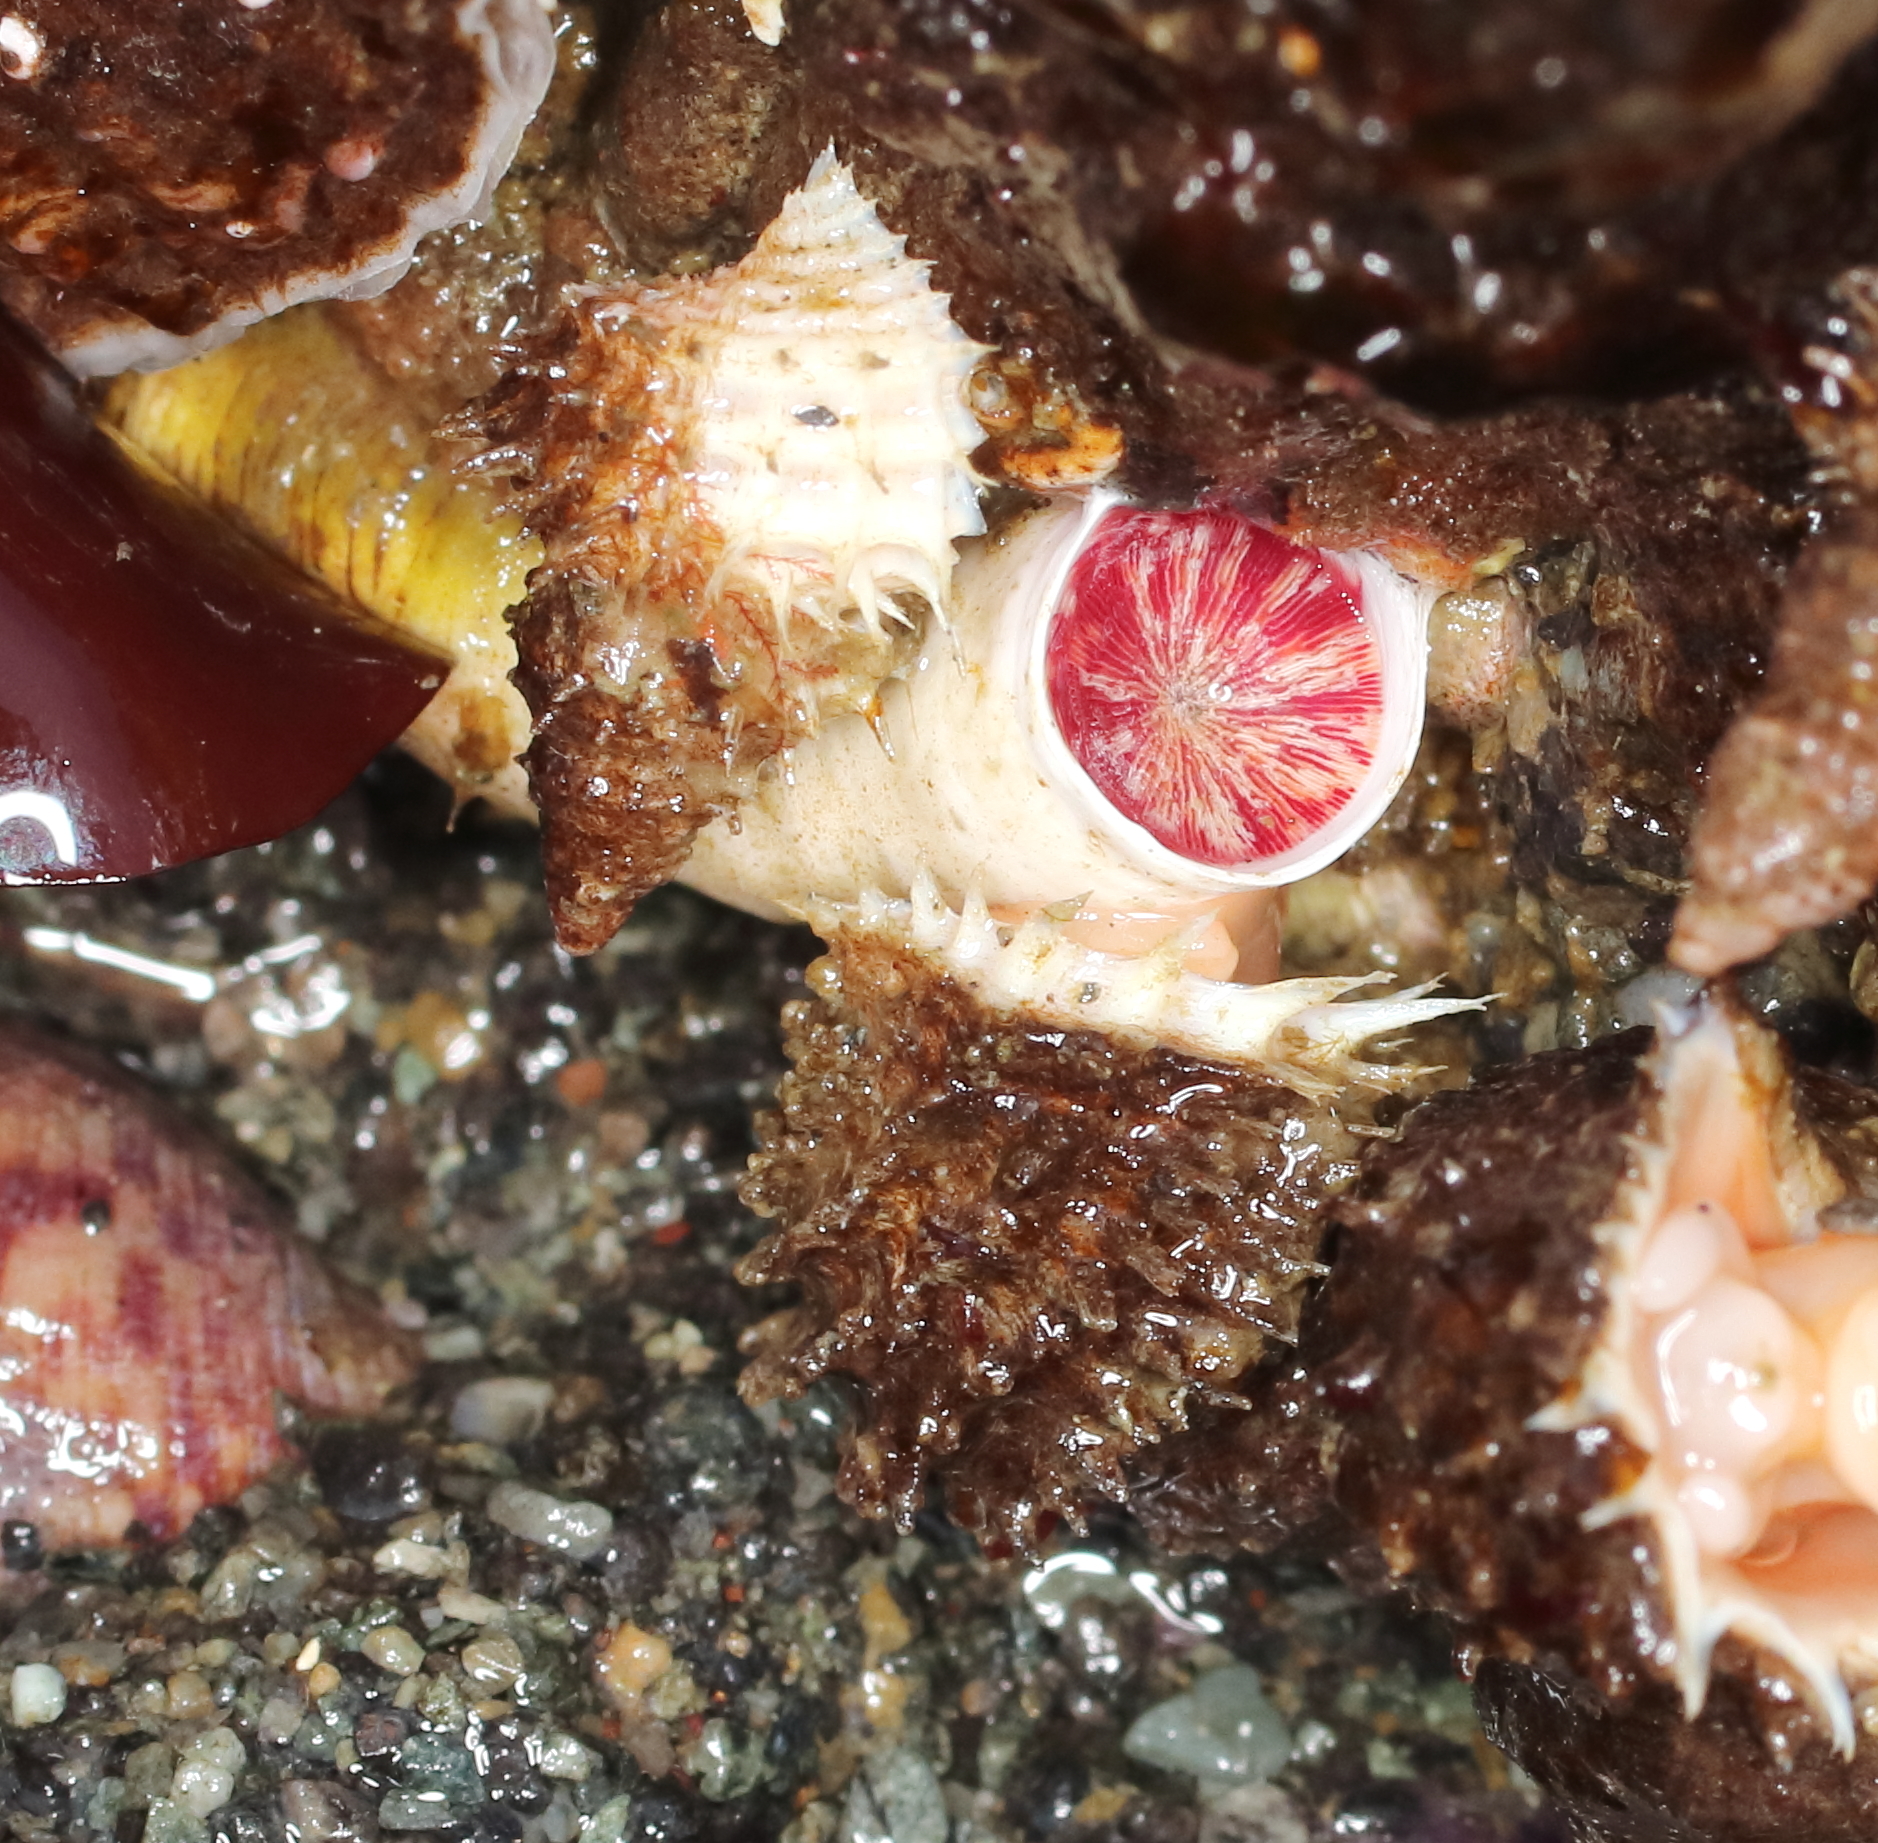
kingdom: Animalia
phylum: Mollusca
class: Gastropoda
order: Littorinimorpha
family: Capulidae
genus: Trichotropis
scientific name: Trichotropis cancellata
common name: Cancellate hairysnail
